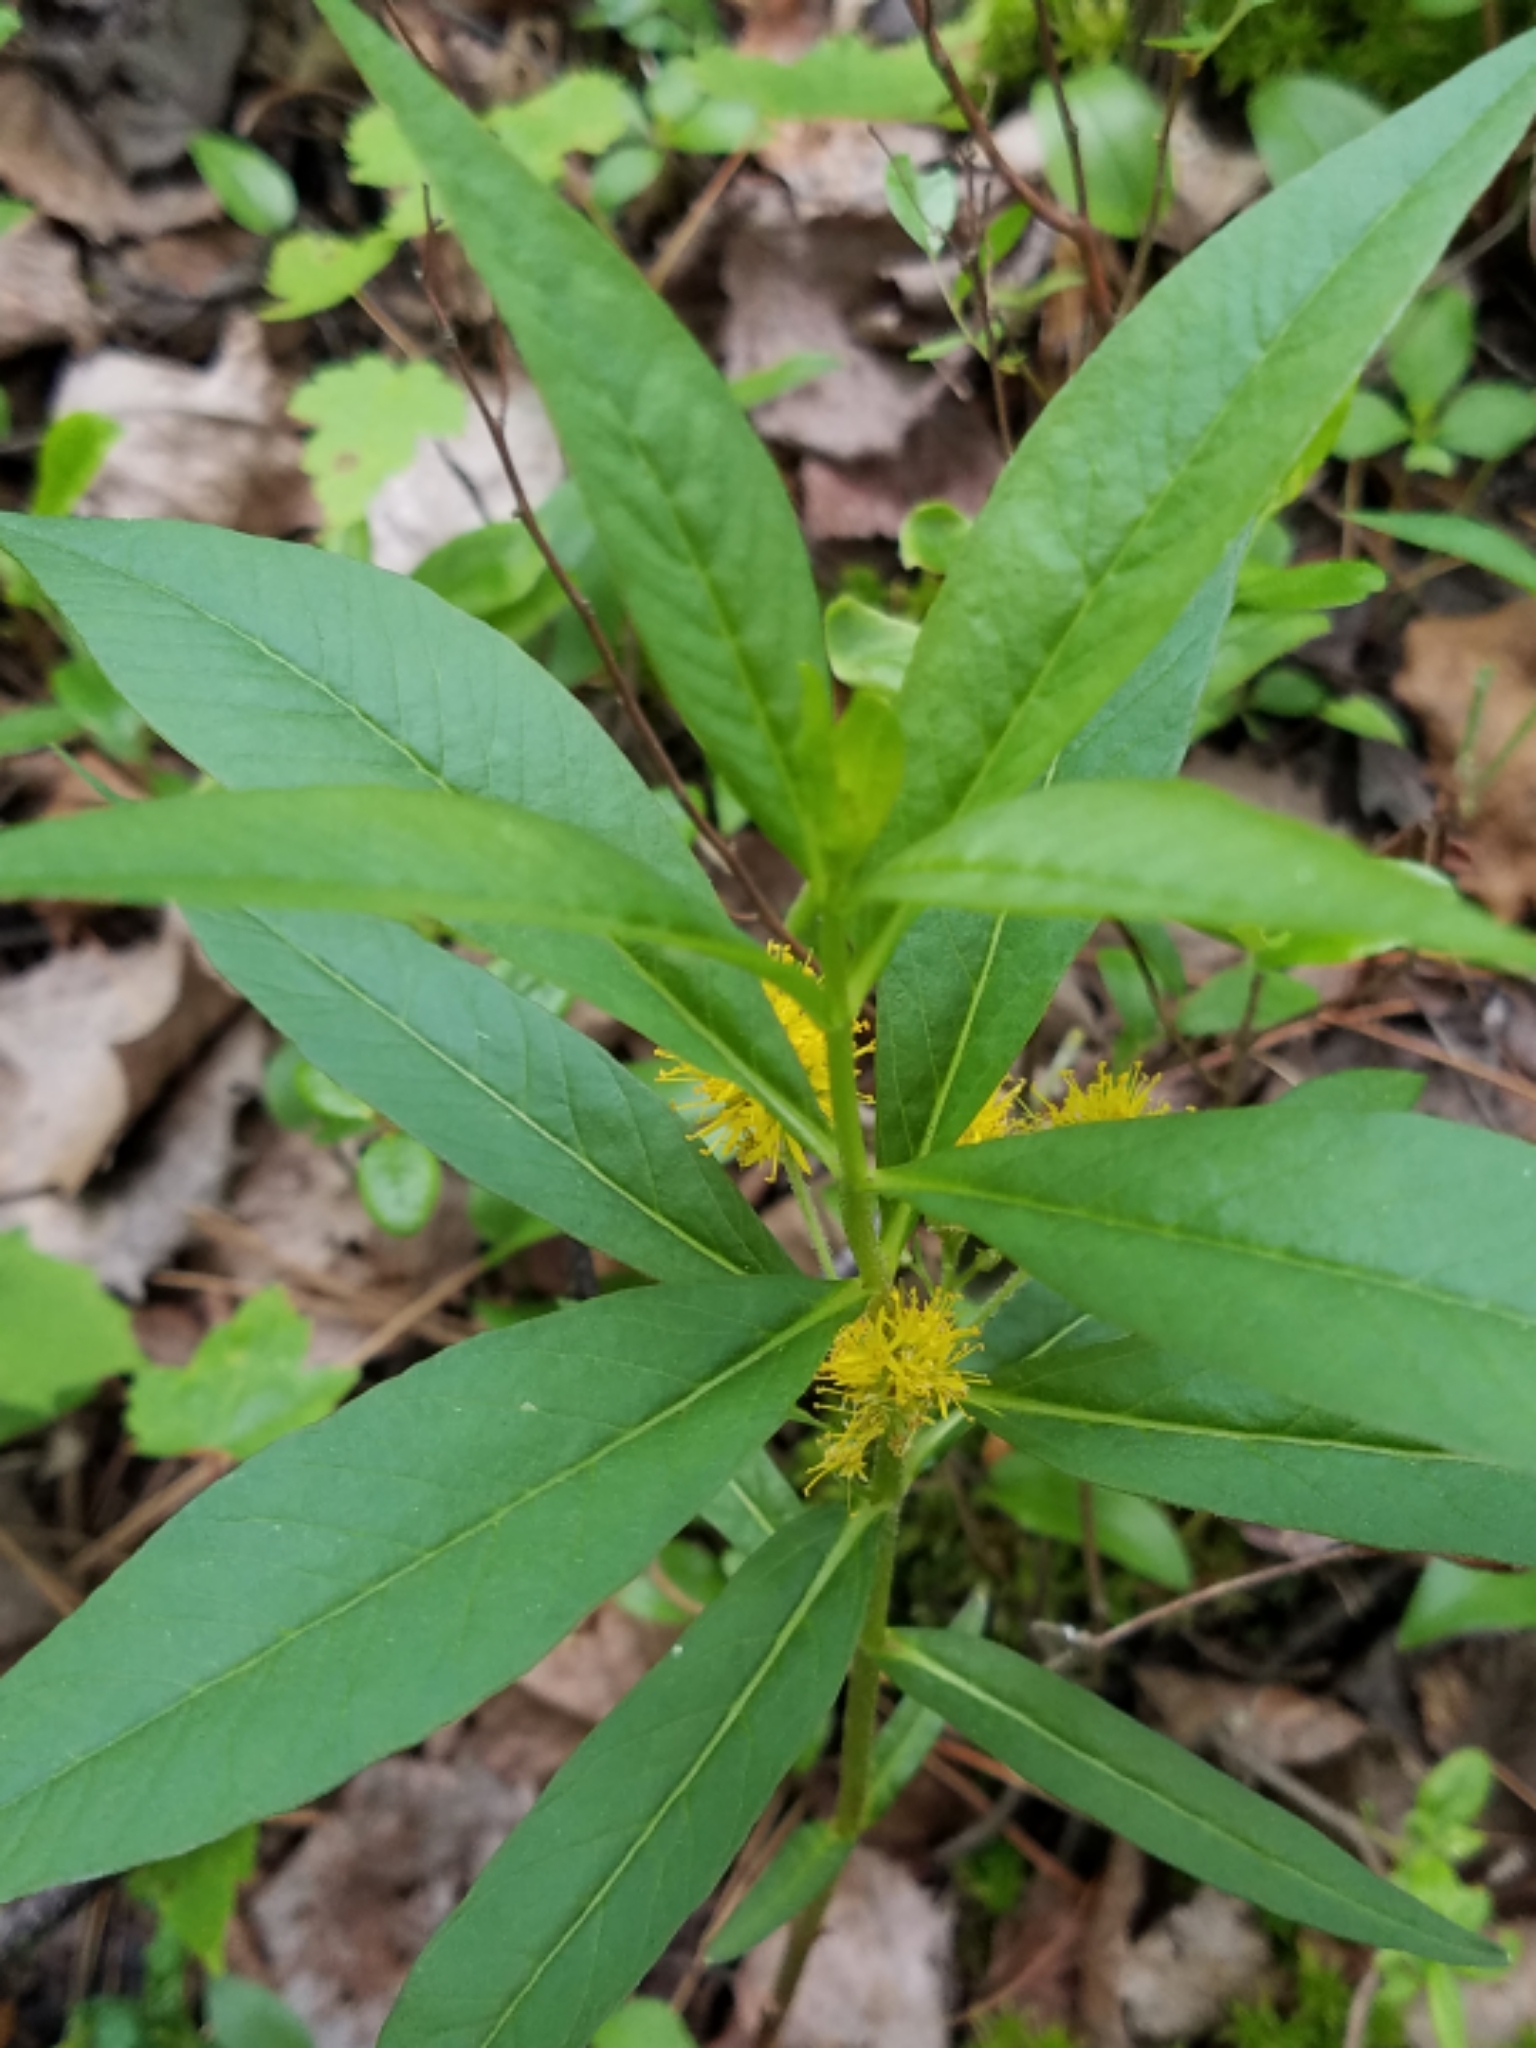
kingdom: Plantae
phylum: Tracheophyta
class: Magnoliopsida
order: Ericales
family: Primulaceae
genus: Lysimachia
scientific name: Lysimachia thyrsiflora
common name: Tufted loosestrife
